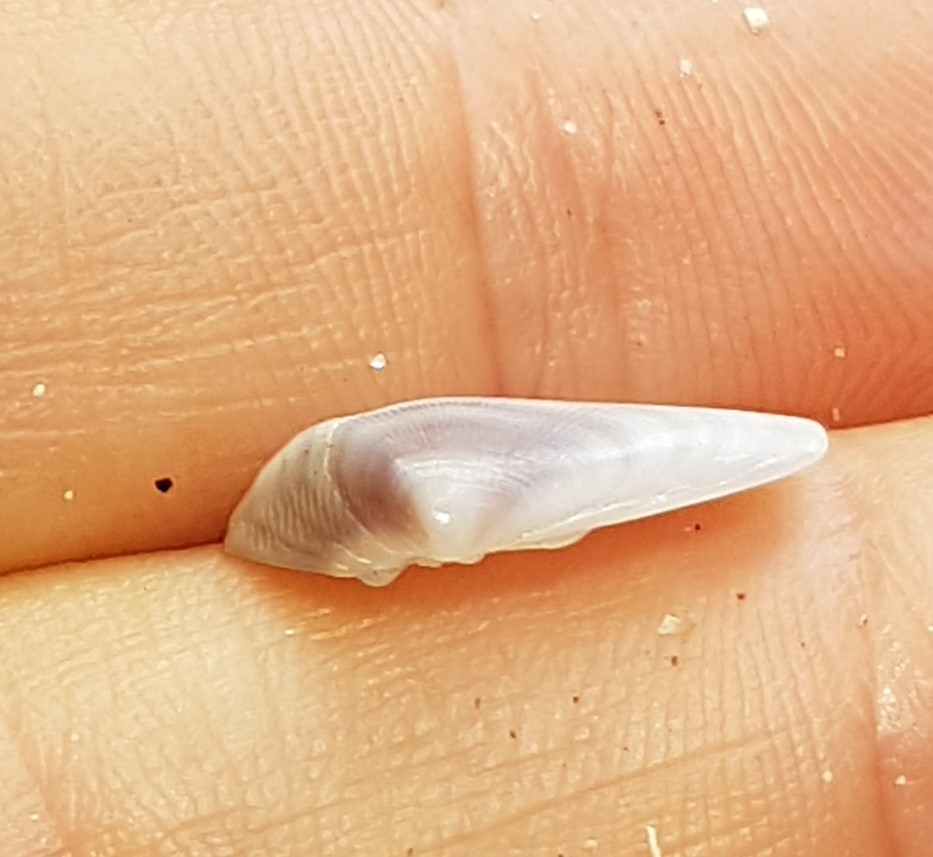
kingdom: Animalia
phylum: Mollusca
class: Bivalvia
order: Cardiida
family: Donacidae
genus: Donax
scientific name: Donax denticulatus
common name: Common caribbean coquina
